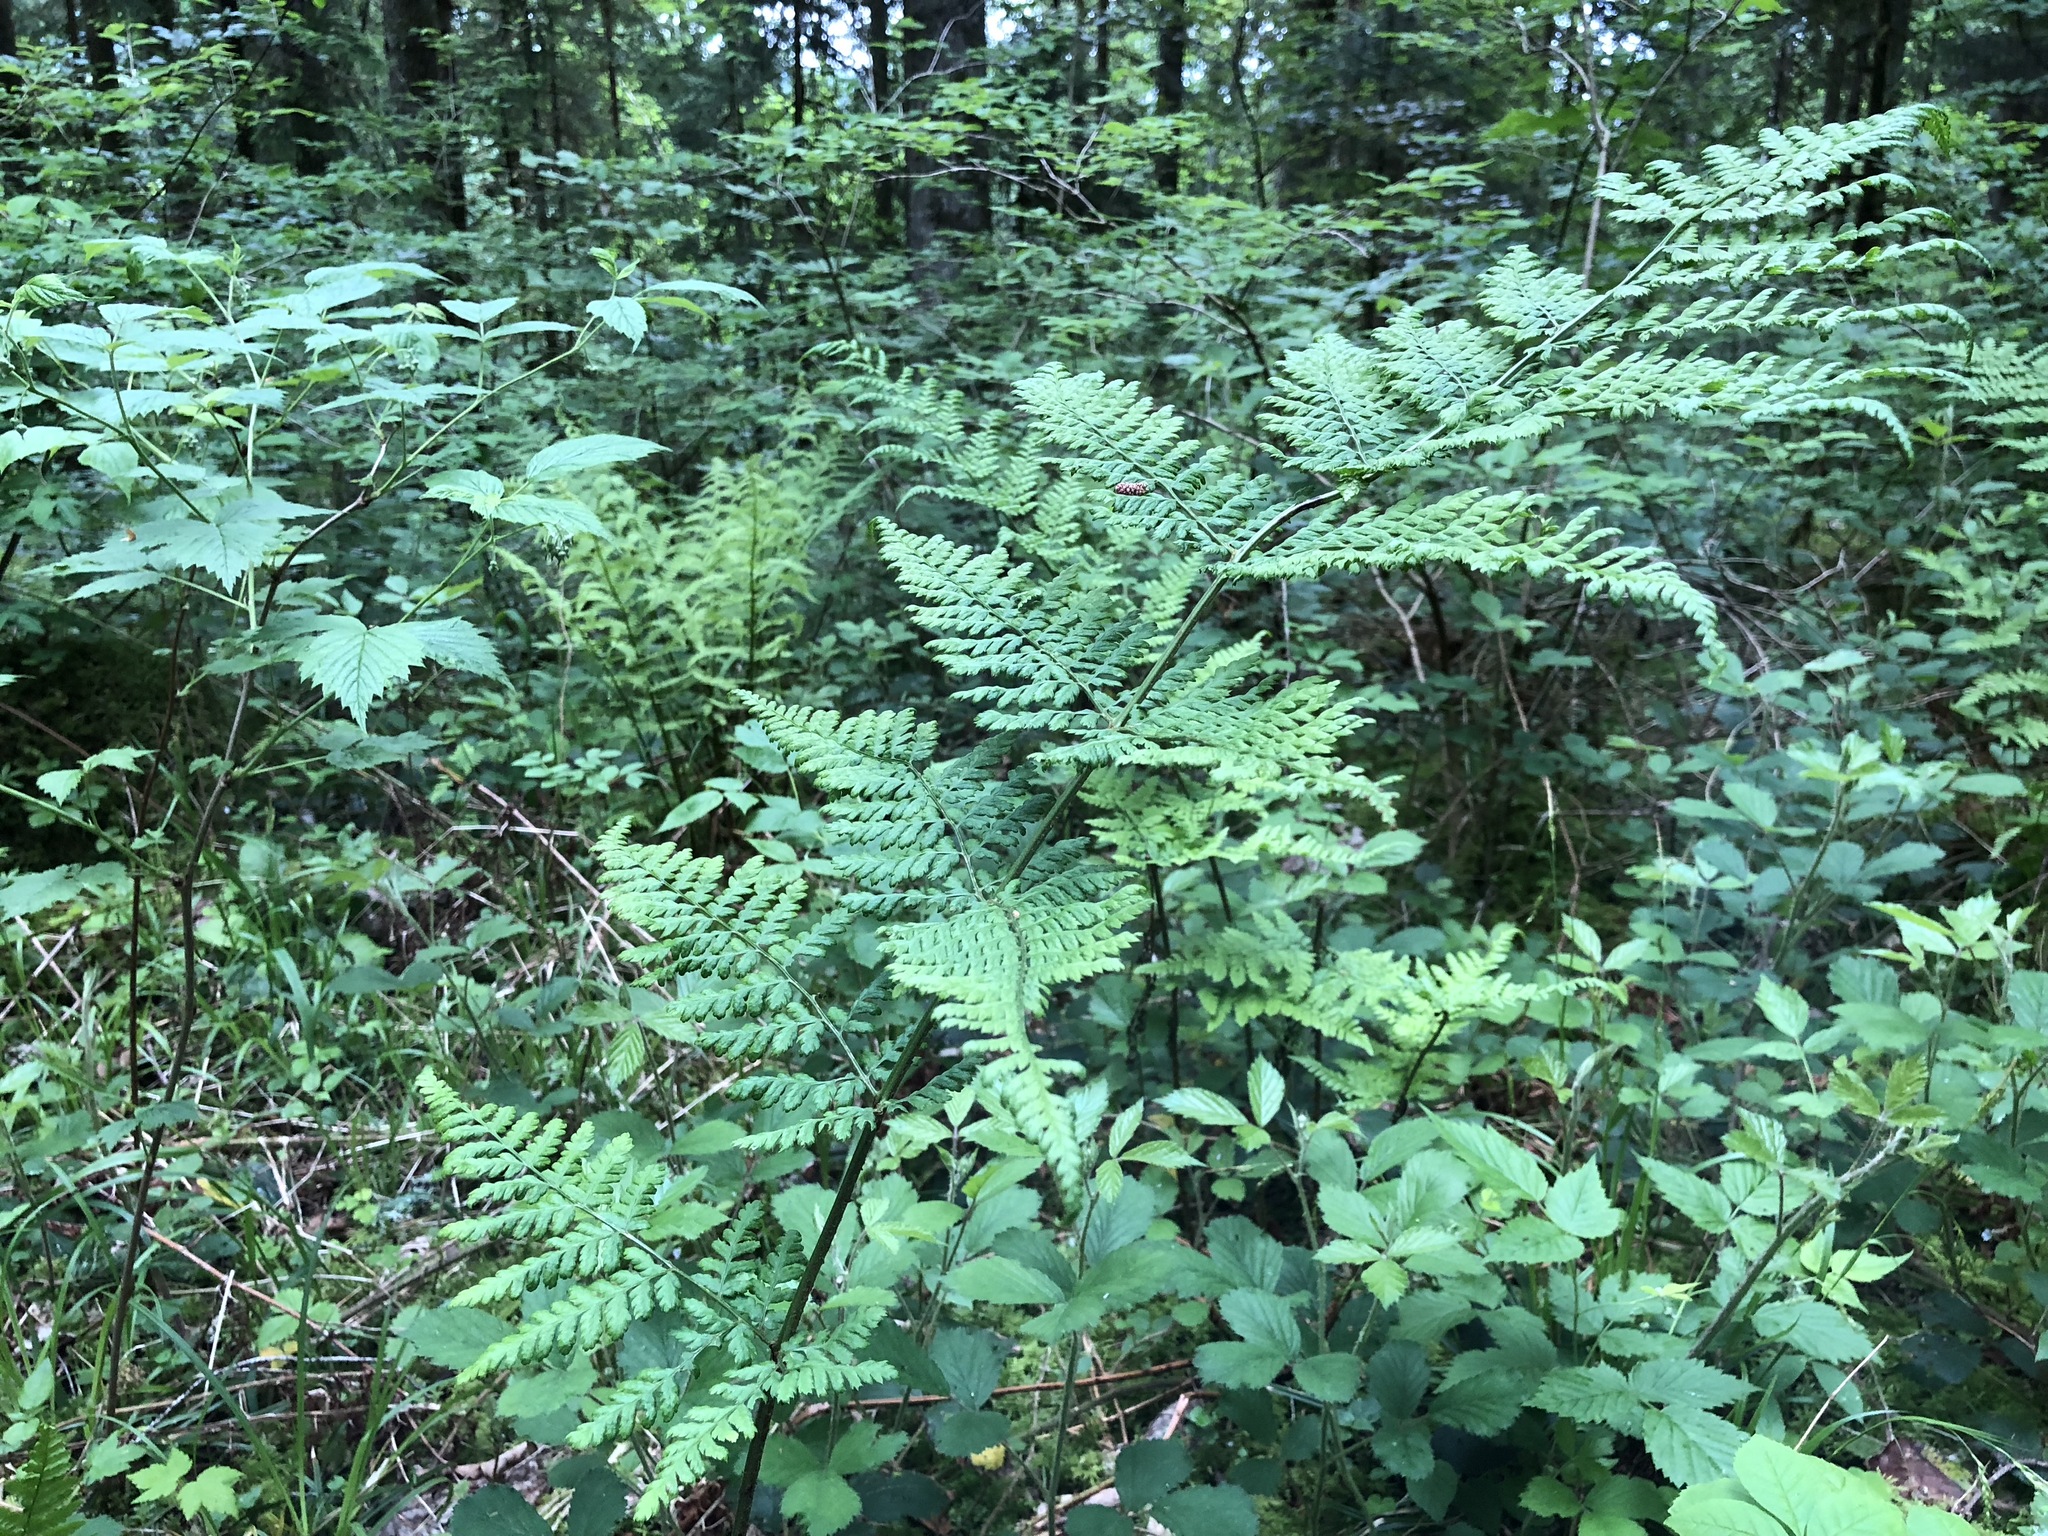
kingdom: Plantae
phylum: Tracheophyta
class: Polypodiopsida
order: Polypodiales
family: Dryopteridaceae
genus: Dryopteris
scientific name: Dryopteris dilatata
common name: Broad buckler-fern
